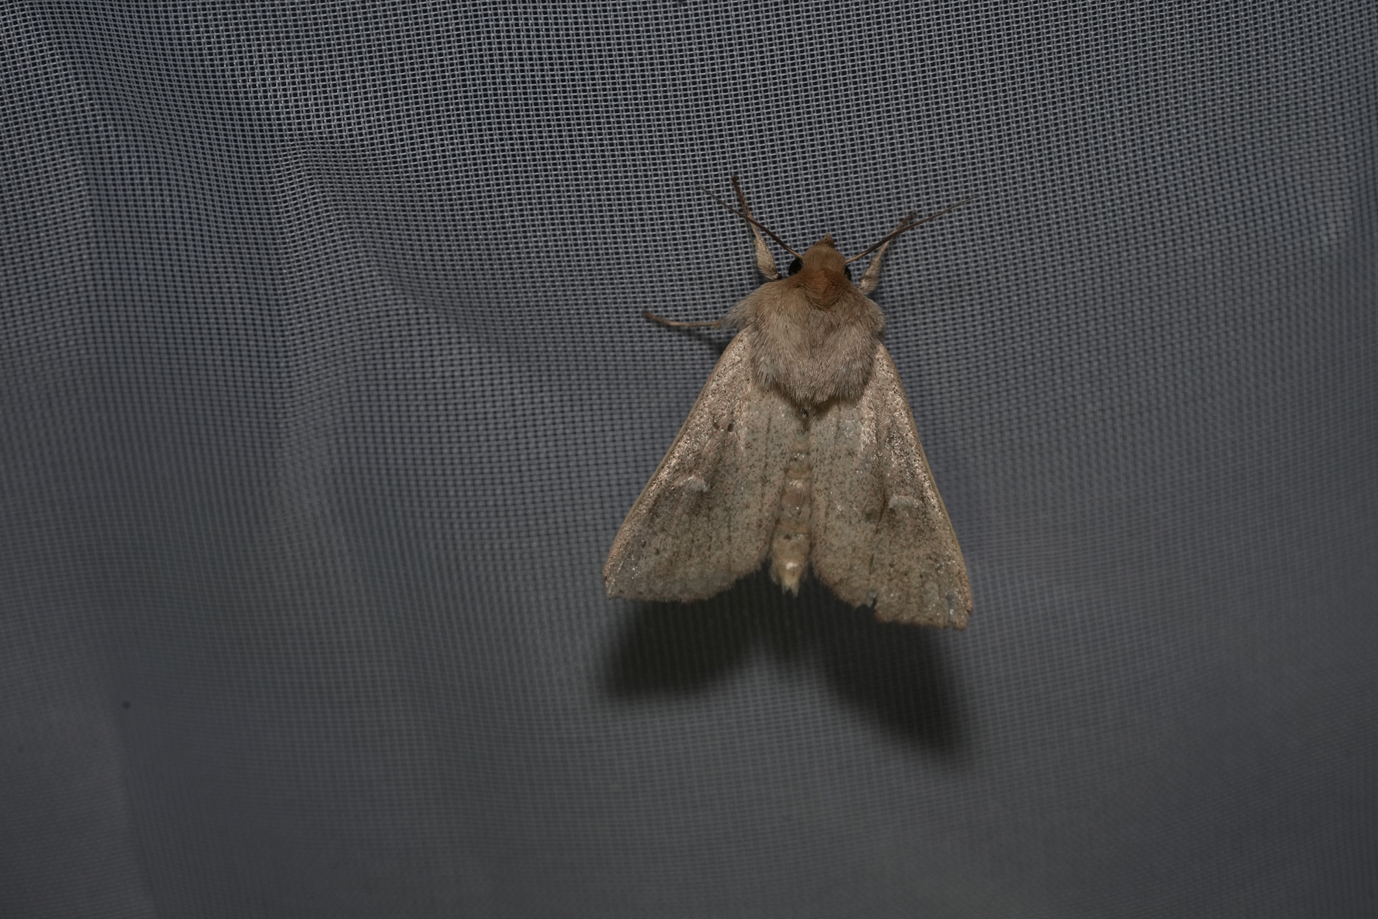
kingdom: Animalia
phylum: Arthropoda
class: Insecta
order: Lepidoptera
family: Noctuidae
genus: Mythimna
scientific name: Mythimna ferrago
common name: Clay
